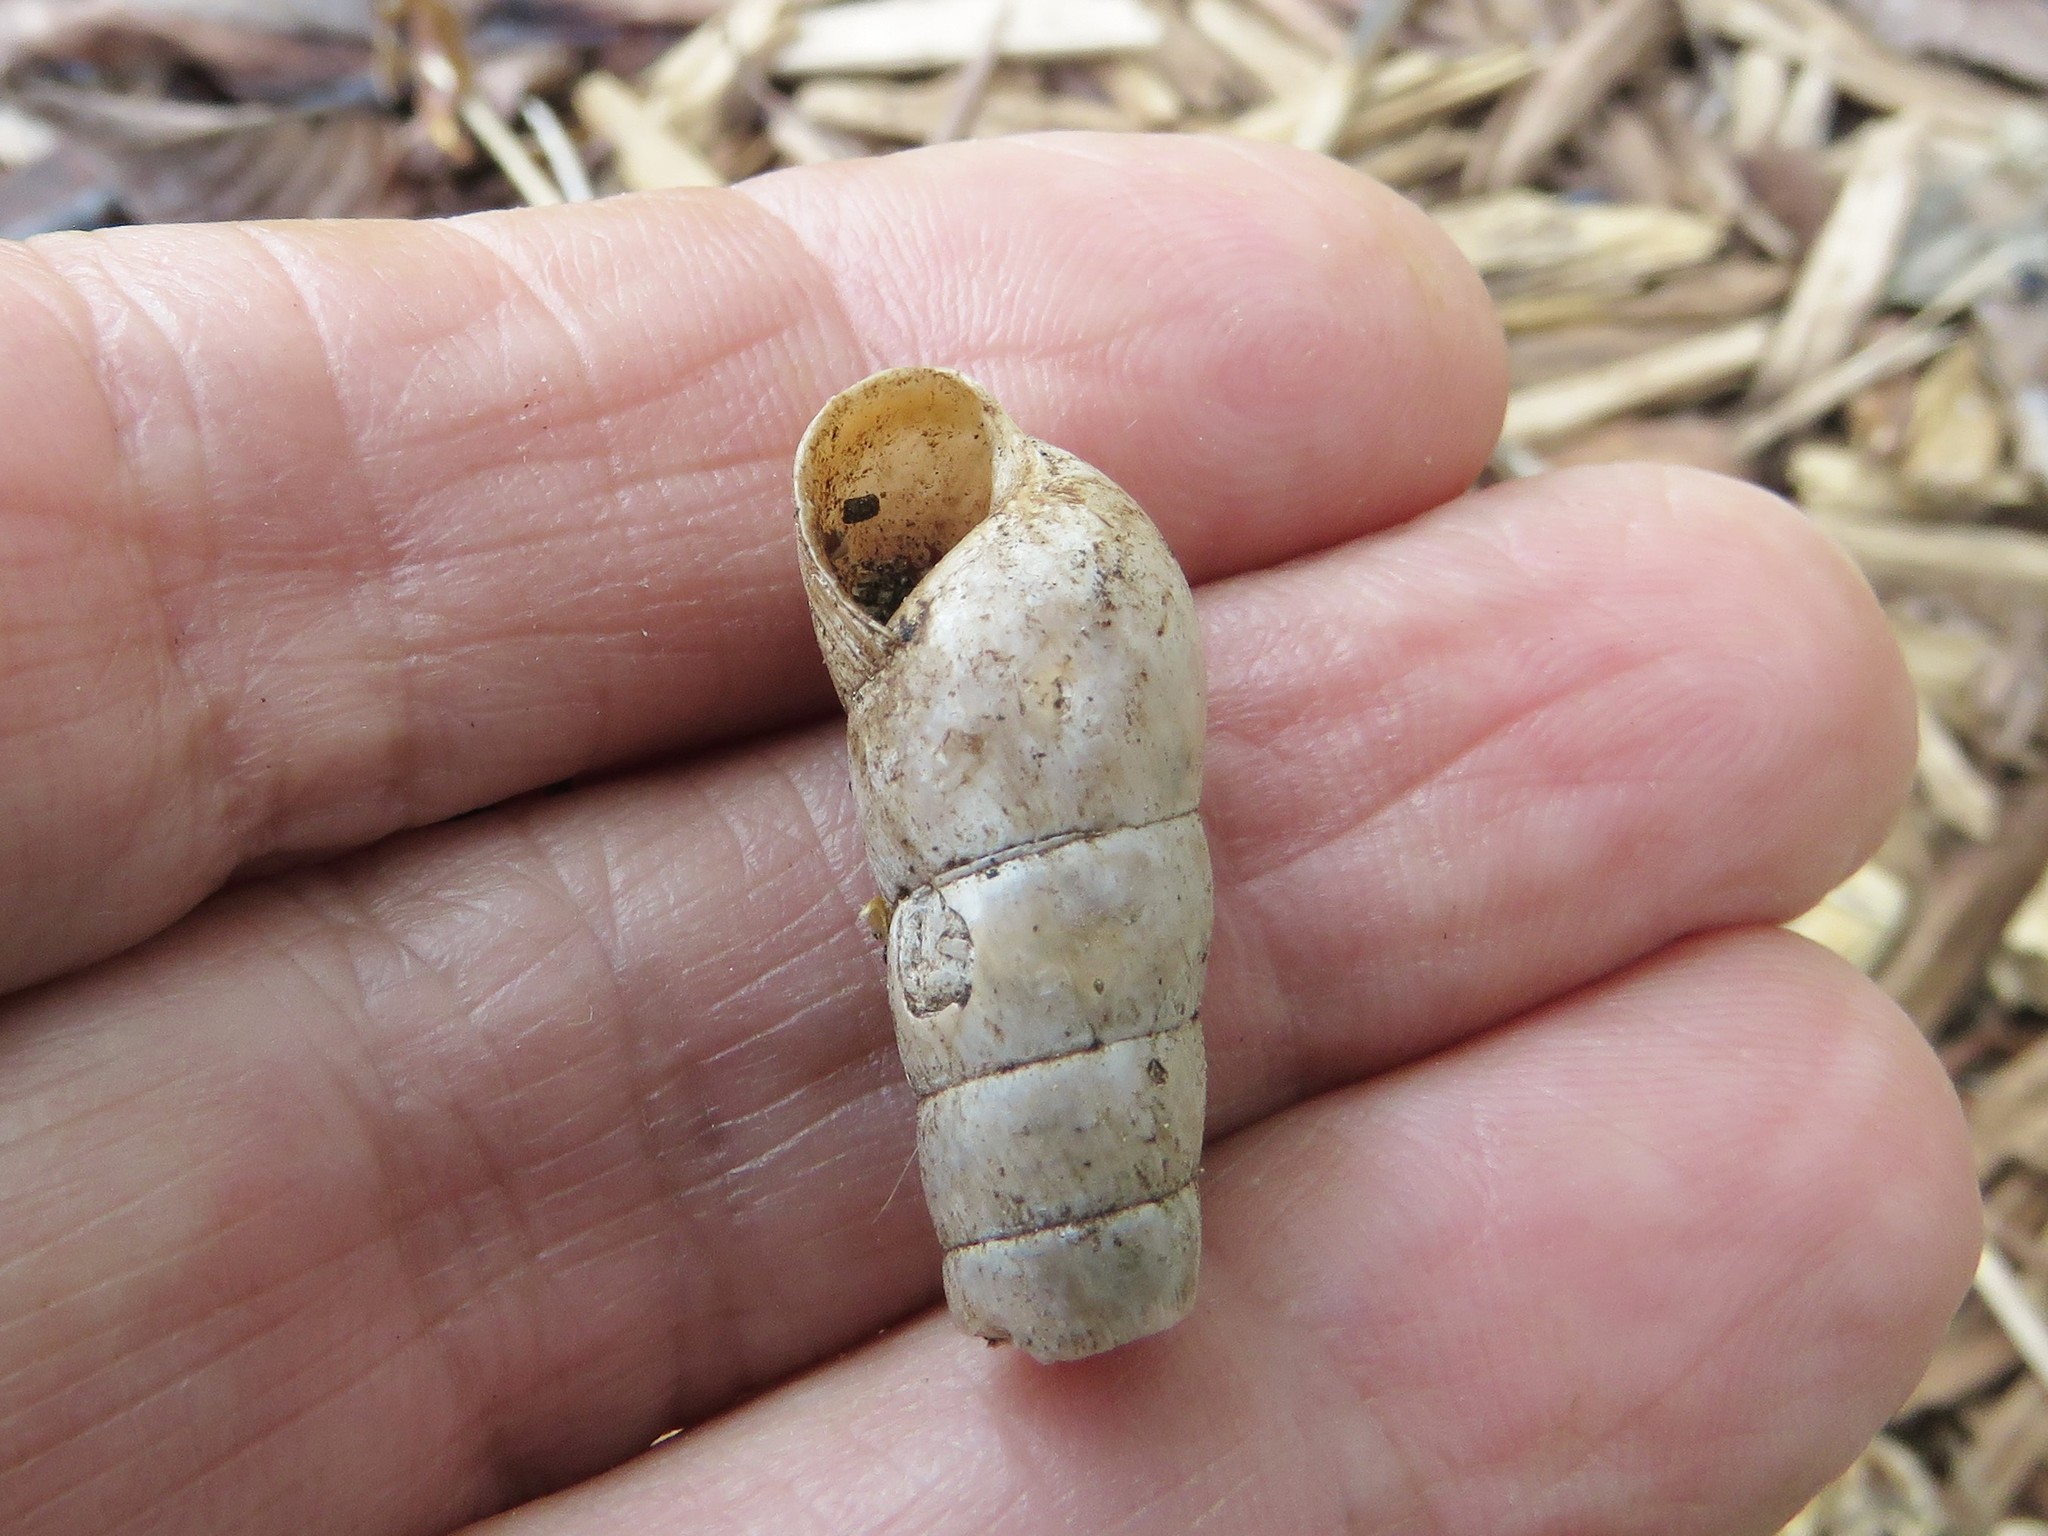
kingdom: Animalia
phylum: Mollusca
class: Gastropoda
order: Stylommatophora
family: Achatinidae
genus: Rumina
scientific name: Rumina decollata
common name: Decollate snail
